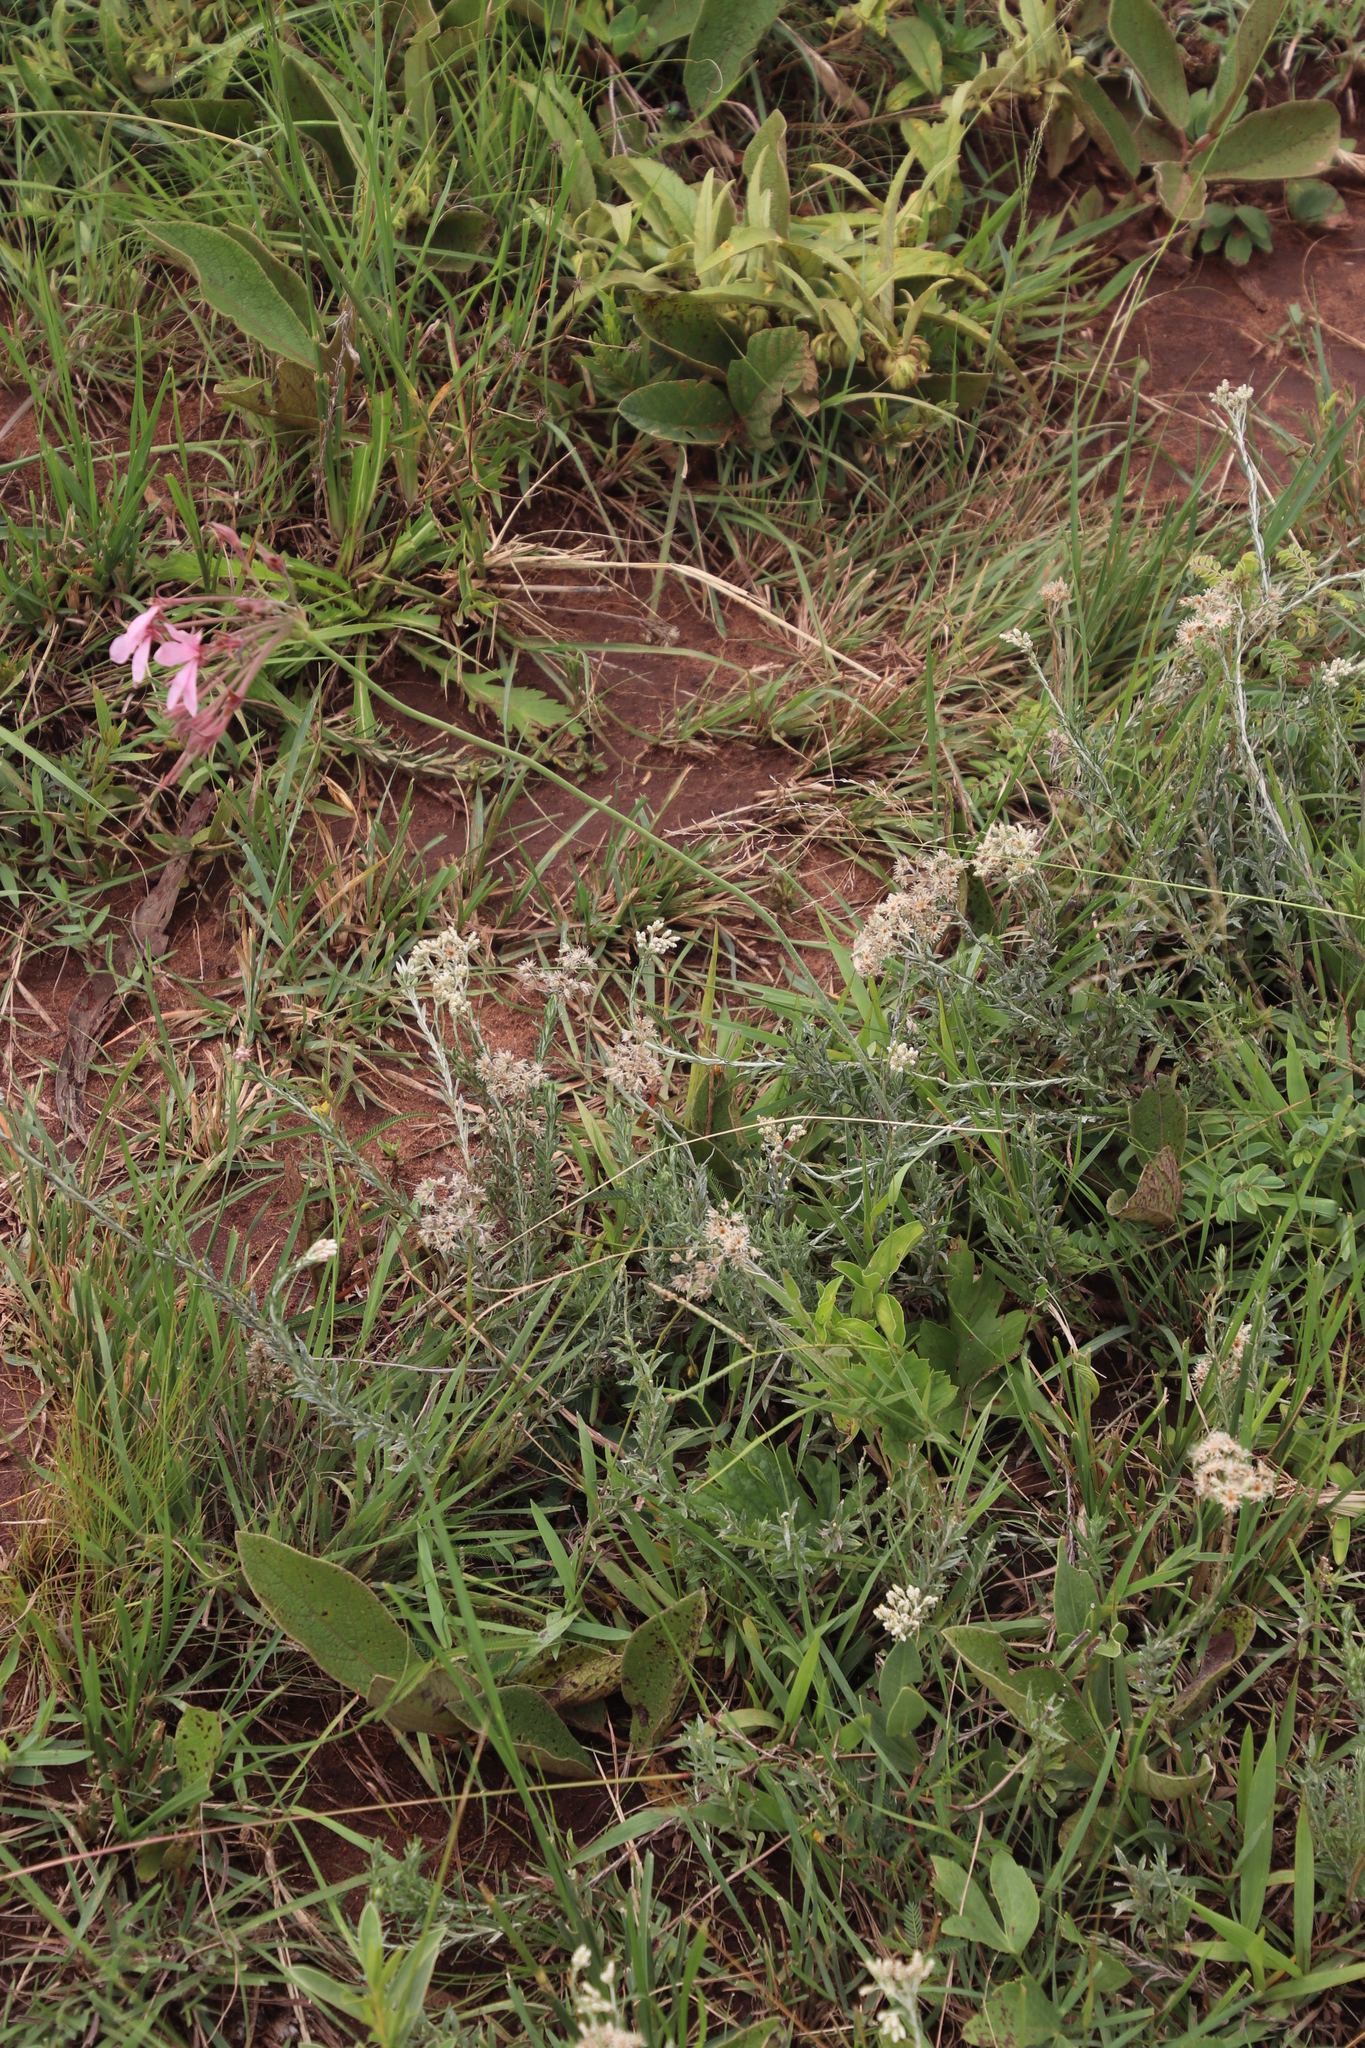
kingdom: Plantae
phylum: Tracheophyta
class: Magnoliopsida
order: Geraniales
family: Geraniaceae
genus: Pelargonium
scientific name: Pelargonium luridum
